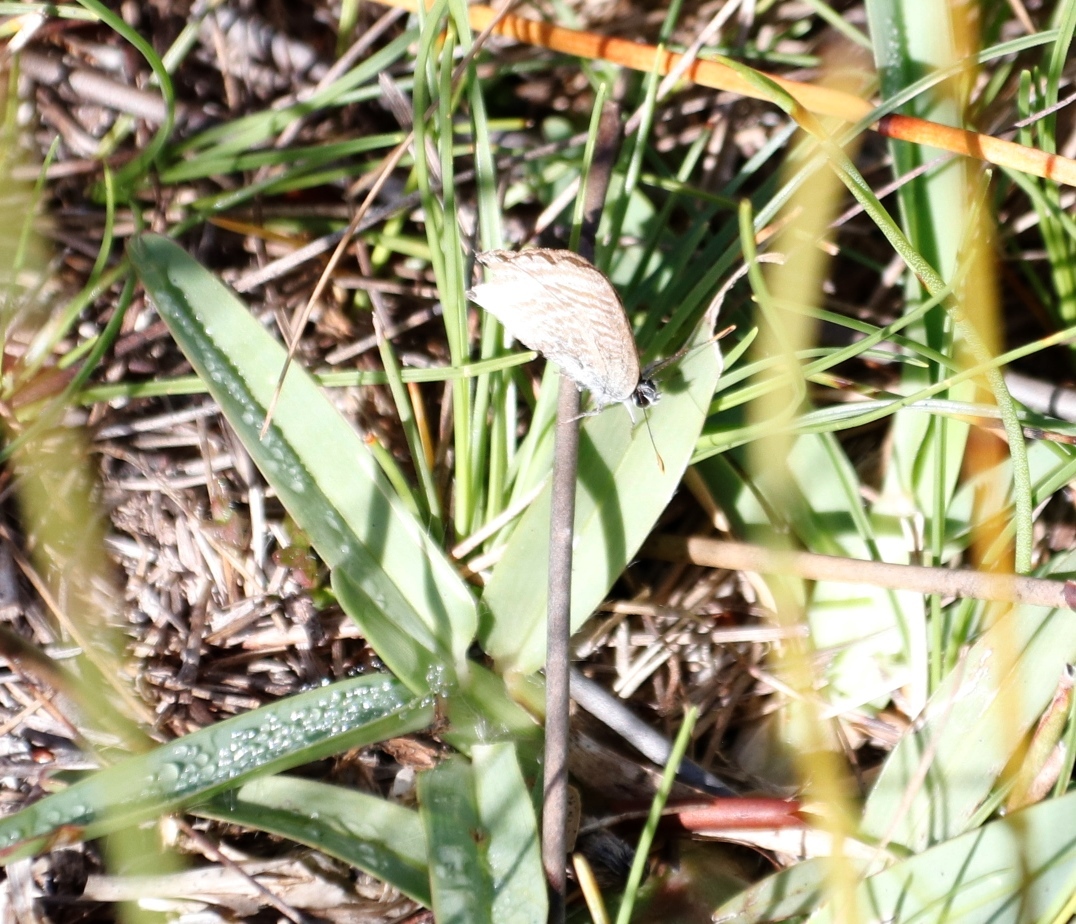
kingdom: Animalia
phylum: Arthropoda
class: Insecta
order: Lepidoptera
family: Lycaenidae
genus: Lampides
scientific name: Lampides boeticus
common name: Long-tailed blue
